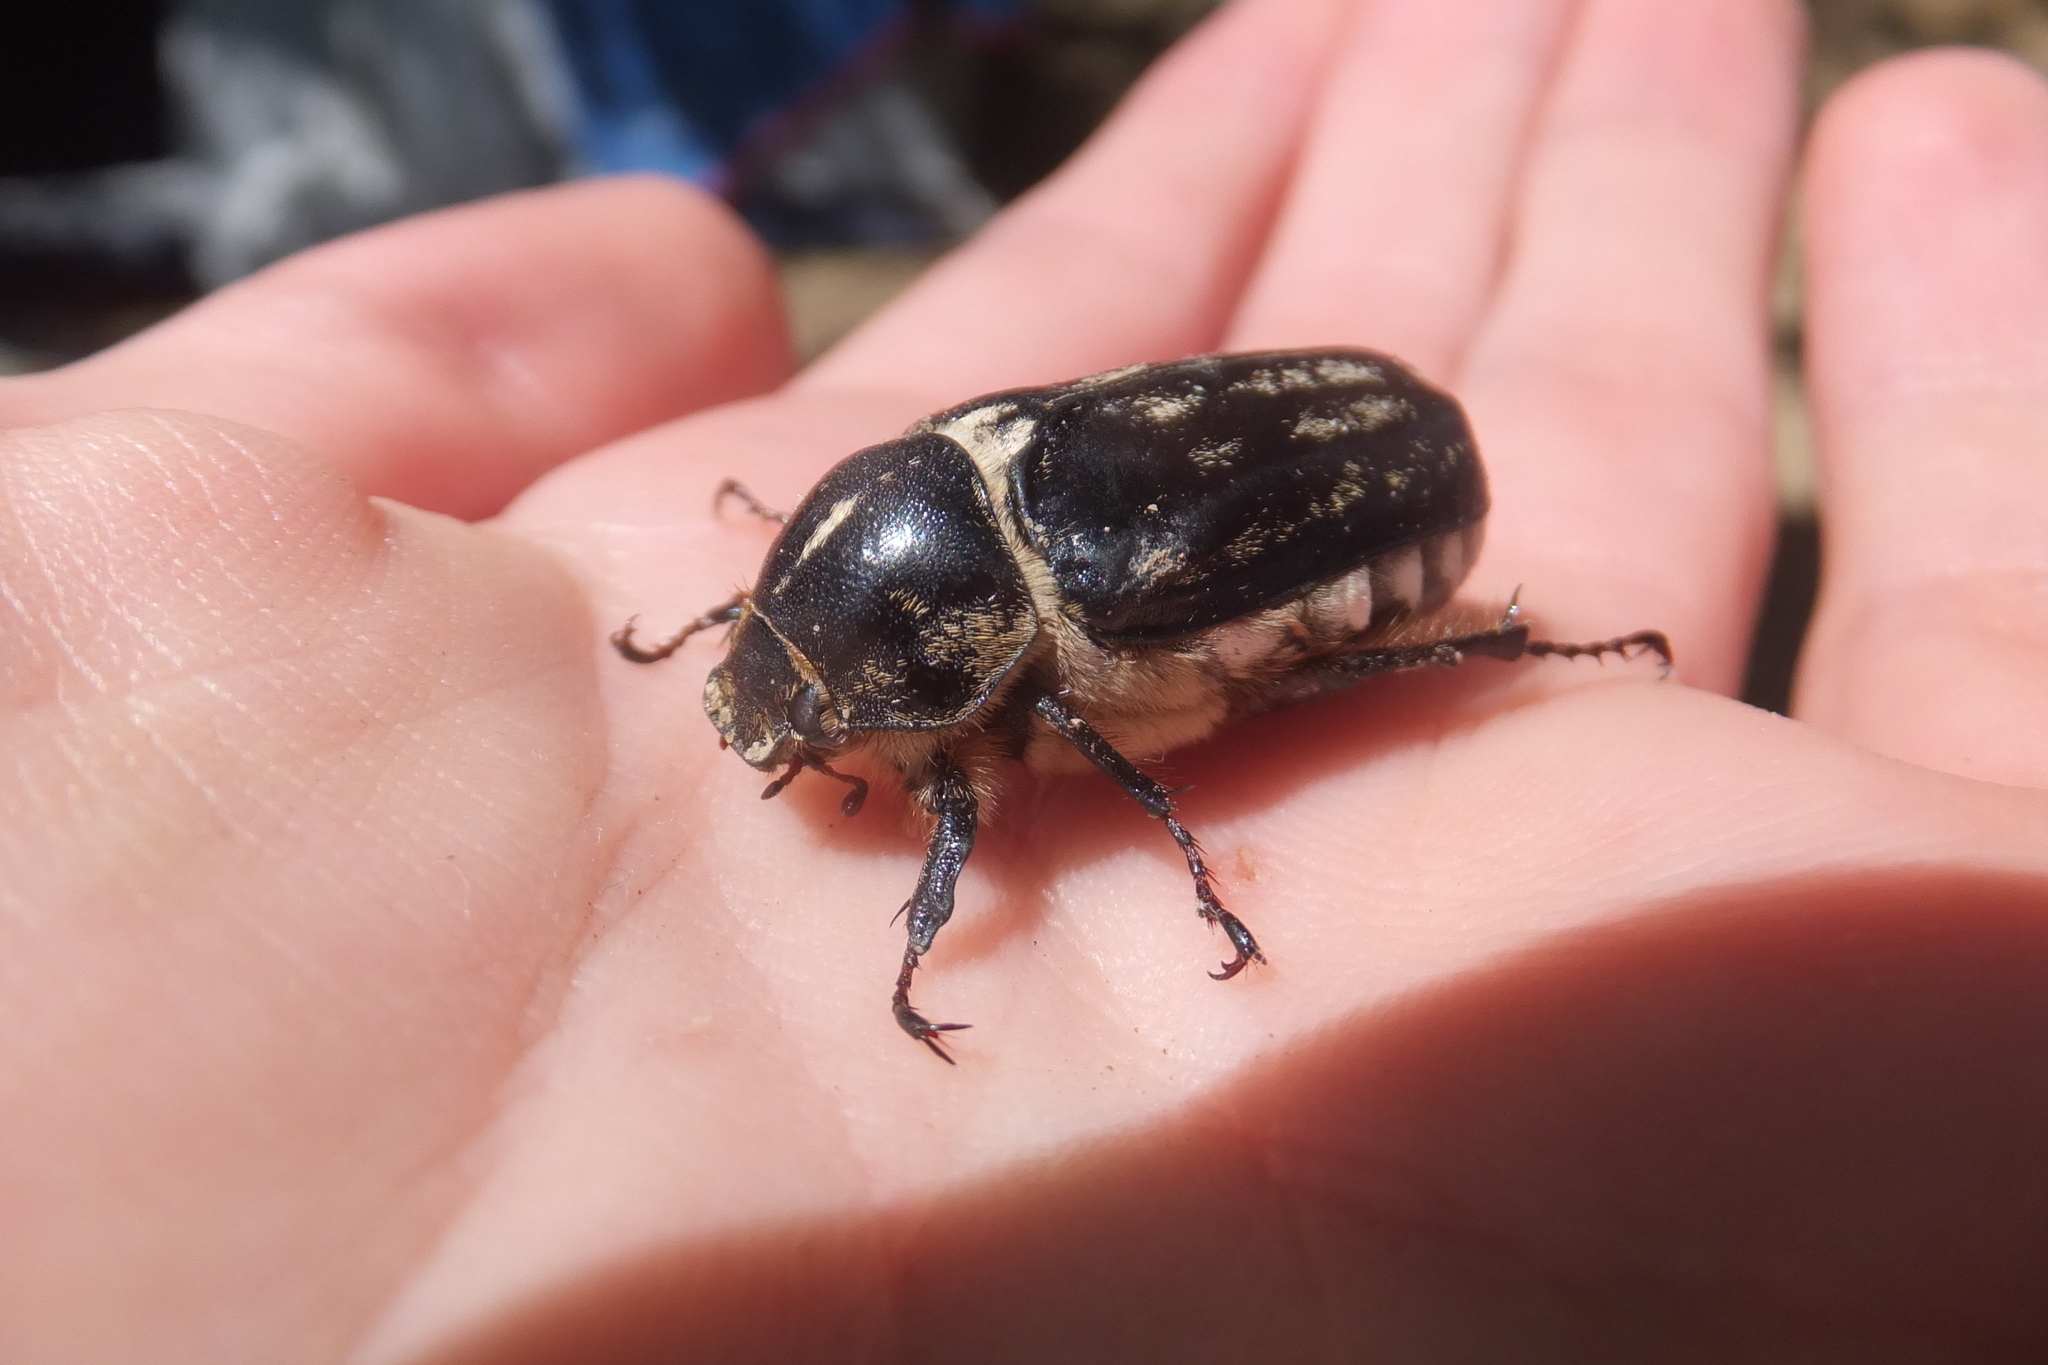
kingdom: Animalia
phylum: Arthropoda
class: Insecta
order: Coleoptera
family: Scarabaeidae
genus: Anoxia
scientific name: Anoxia matutinalis
